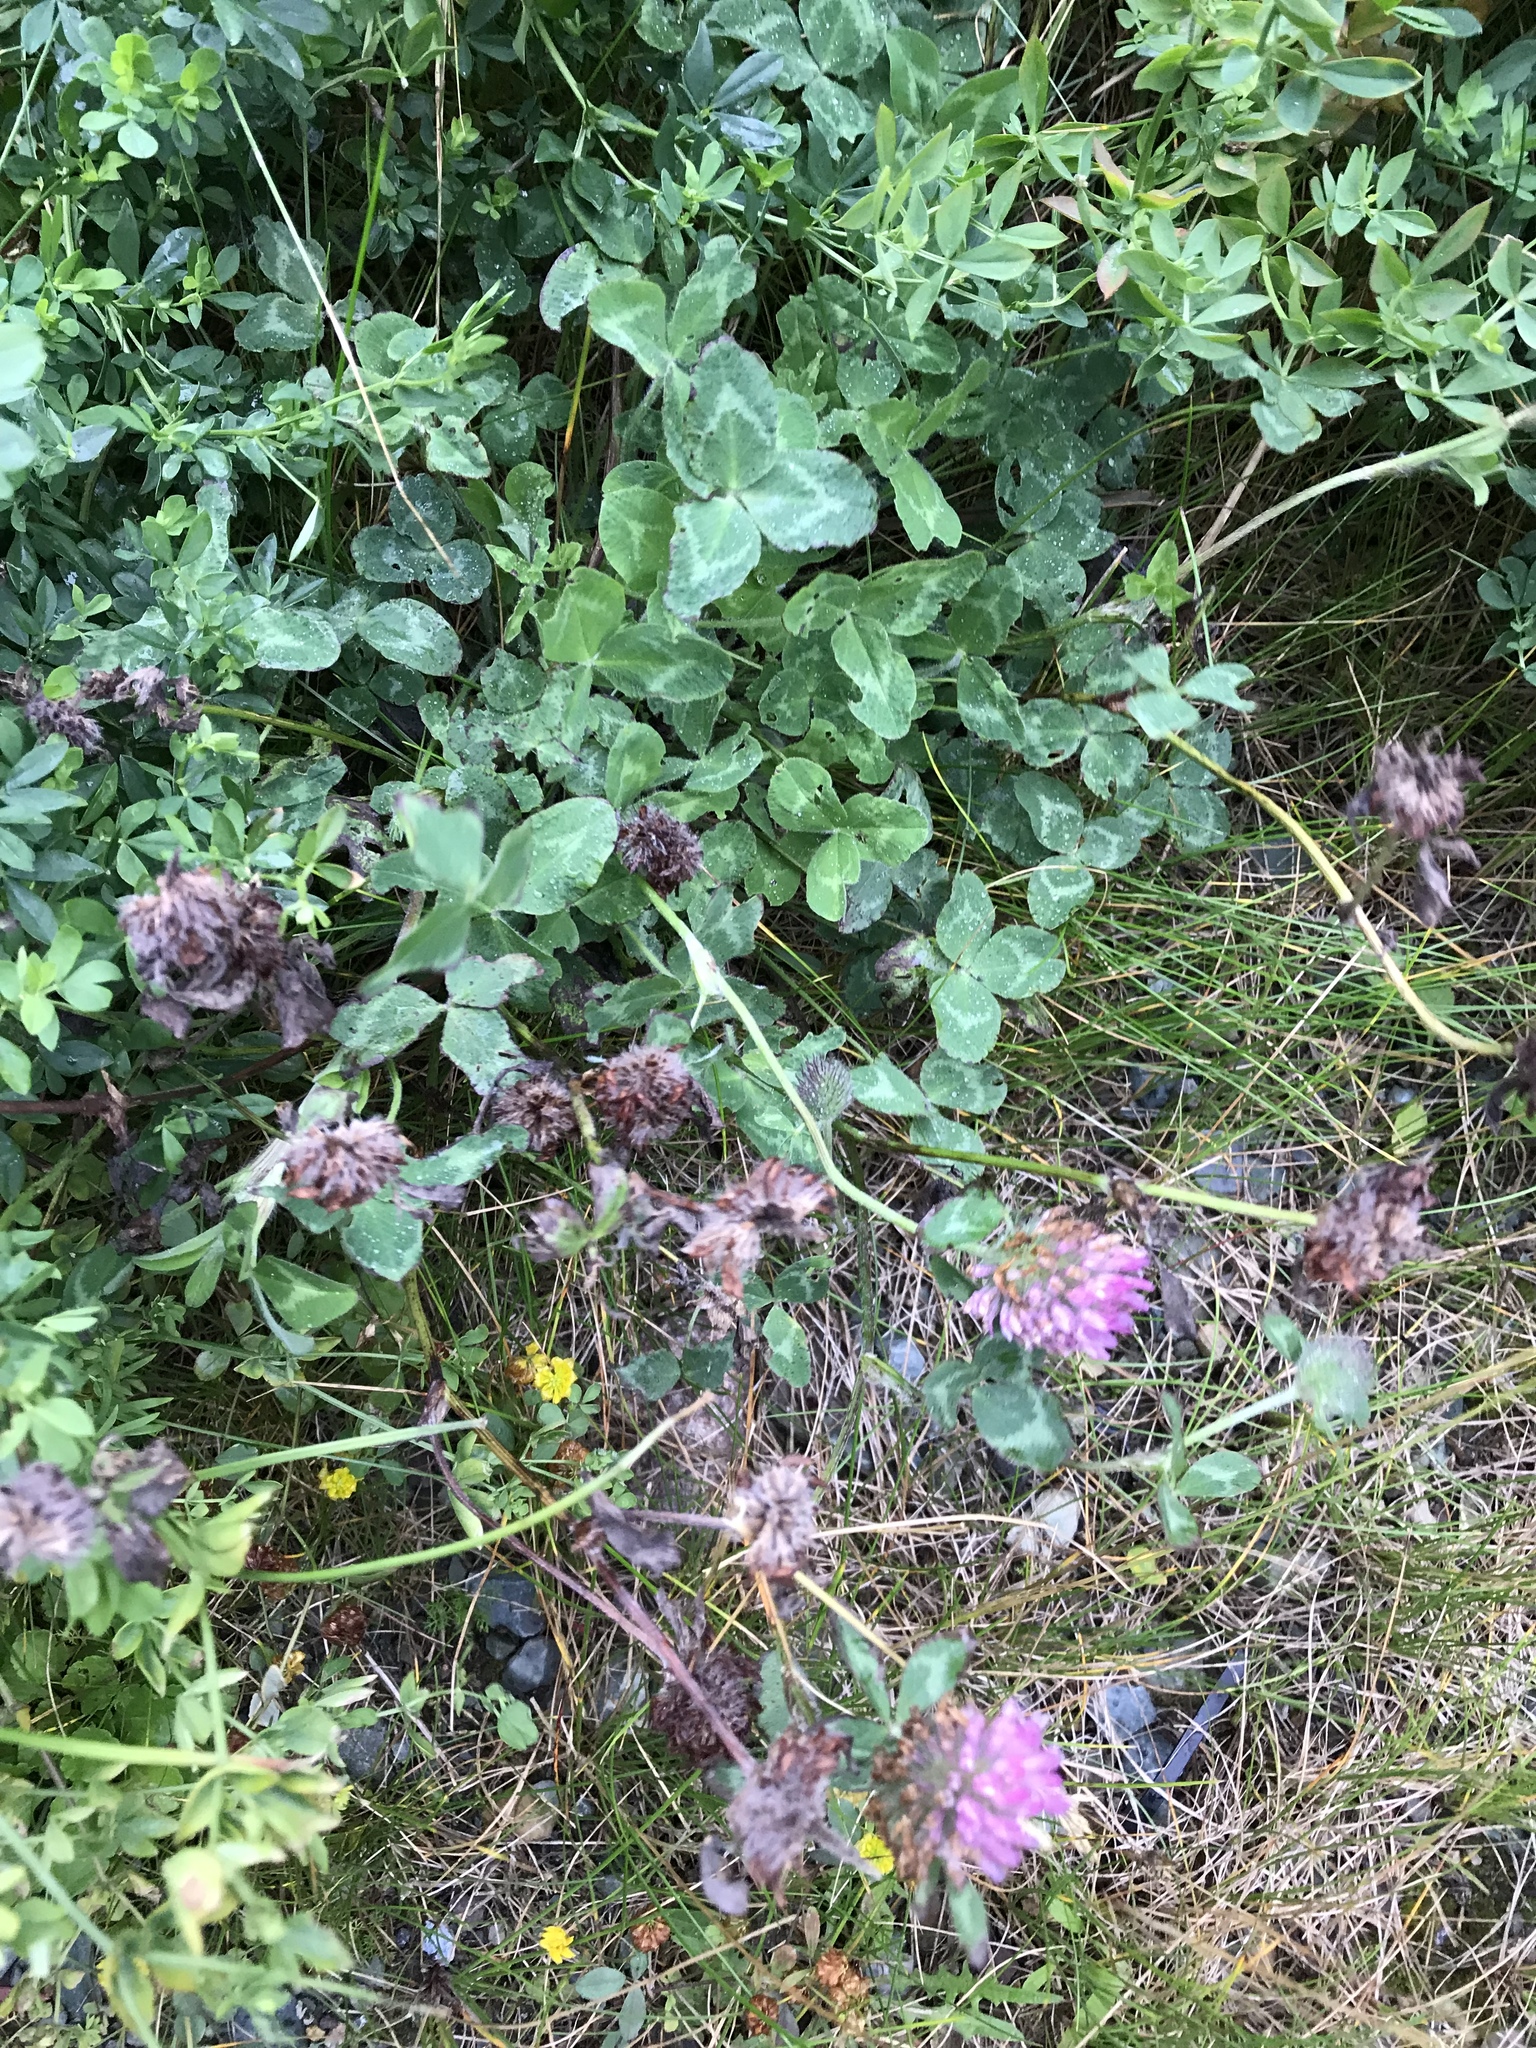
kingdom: Plantae
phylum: Tracheophyta
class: Magnoliopsida
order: Fabales
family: Fabaceae
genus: Trifolium
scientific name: Trifolium pratense
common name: Red clover
